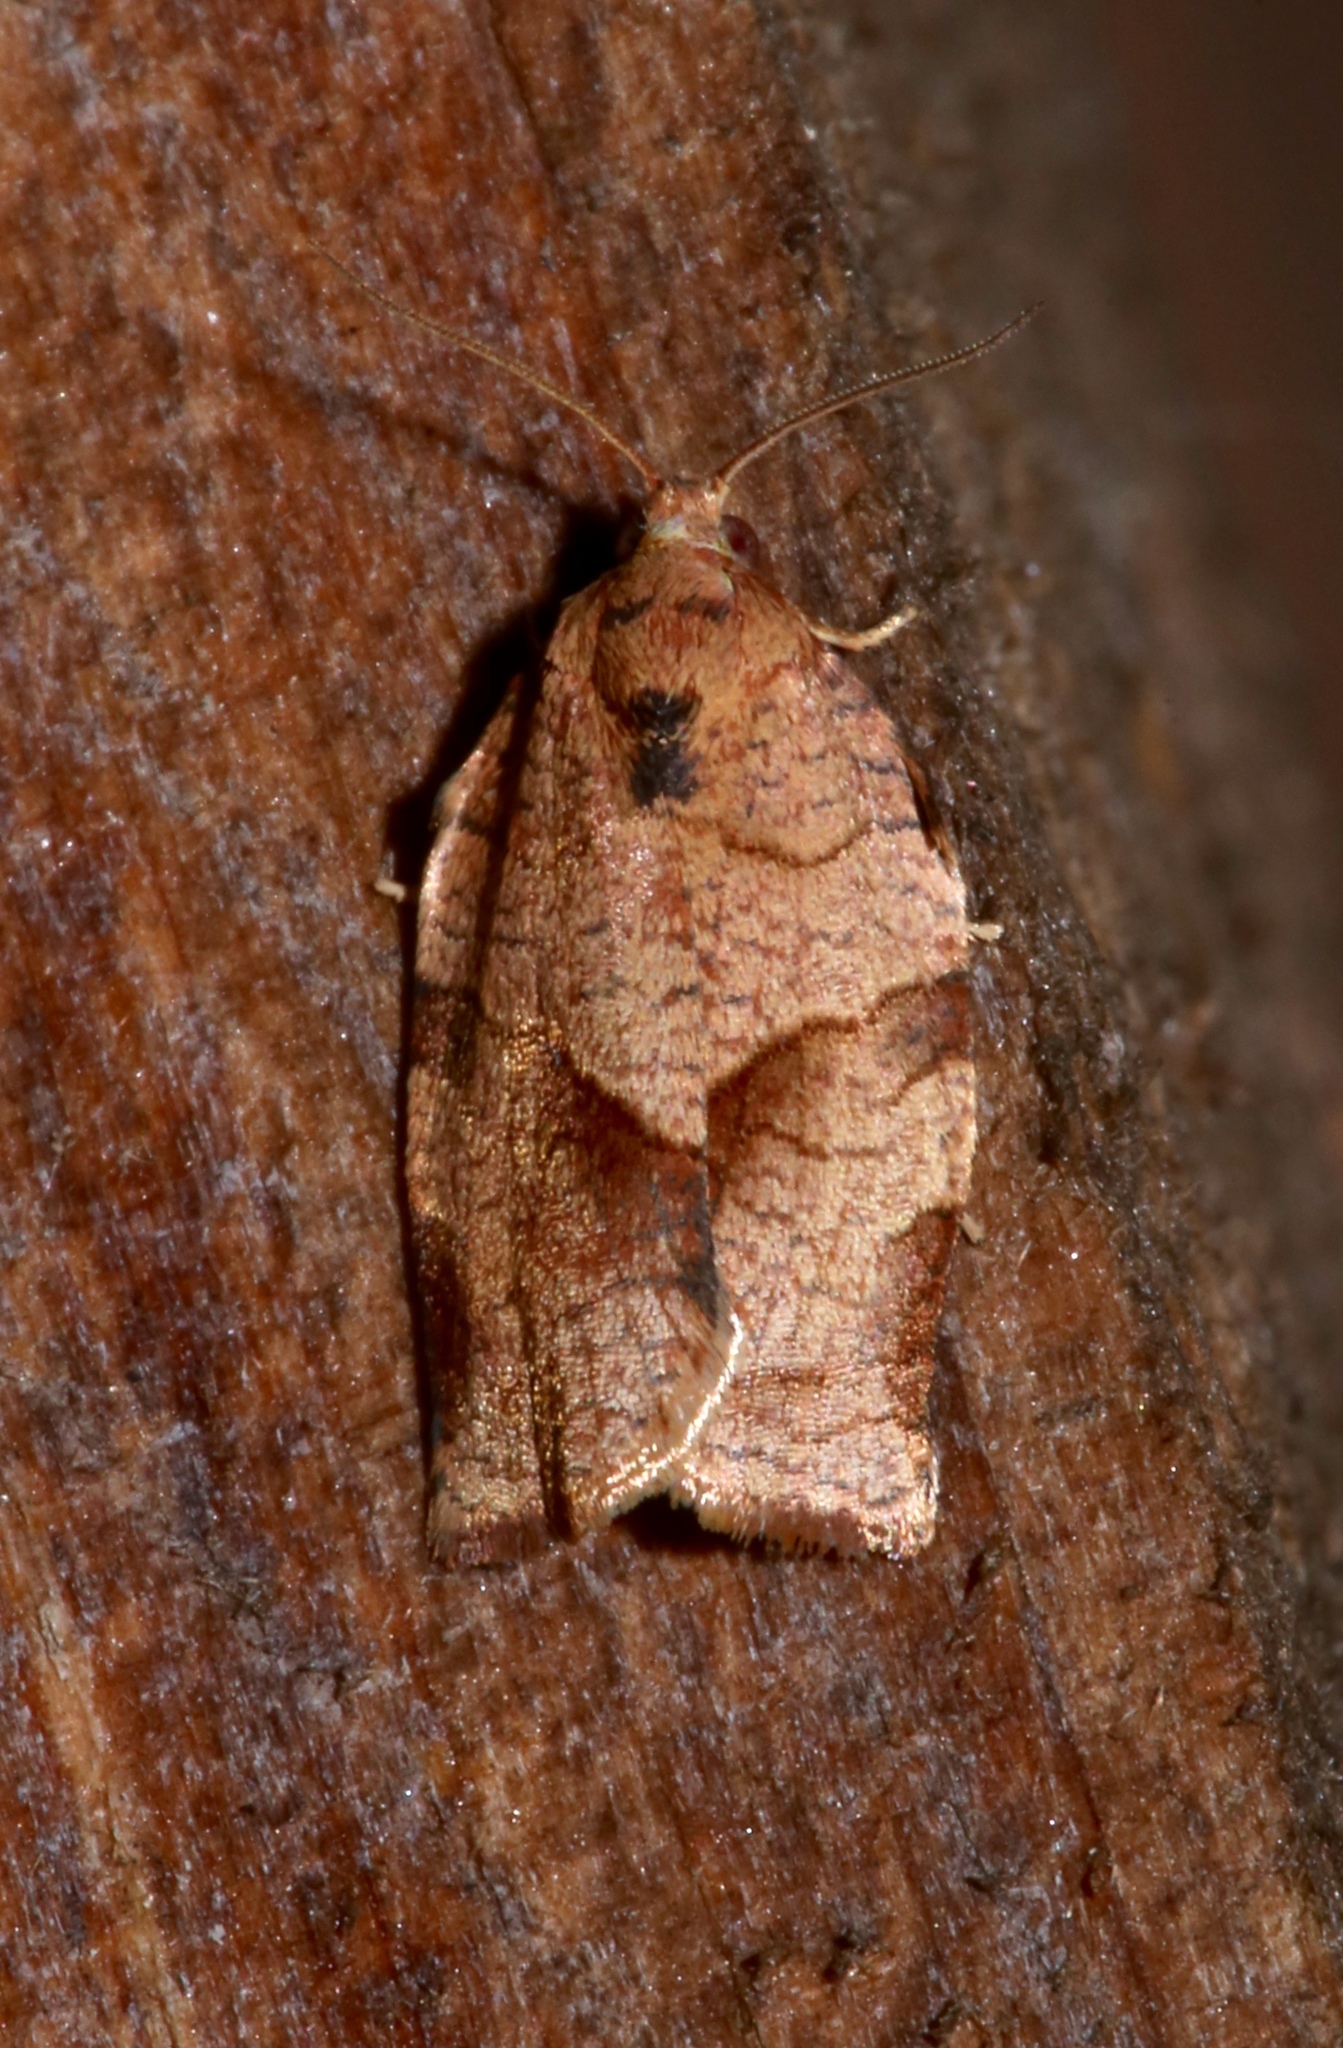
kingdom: Animalia
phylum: Arthropoda
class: Insecta
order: Lepidoptera
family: Tortricidae
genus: Choristoneura
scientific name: Choristoneura rosaceana
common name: Oblique-banded leafroller moth
